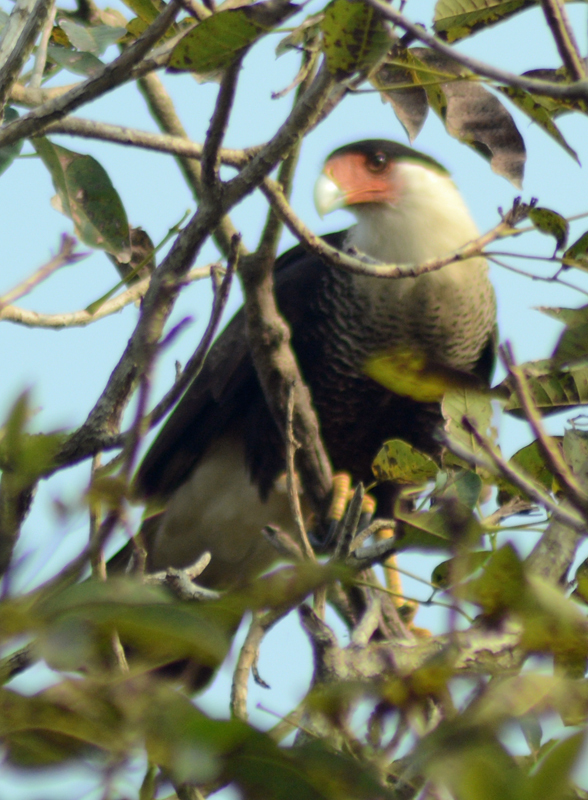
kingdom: Animalia
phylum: Chordata
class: Aves
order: Falconiformes
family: Falconidae
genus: Caracara
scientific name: Caracara plancus
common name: Southern caracara
